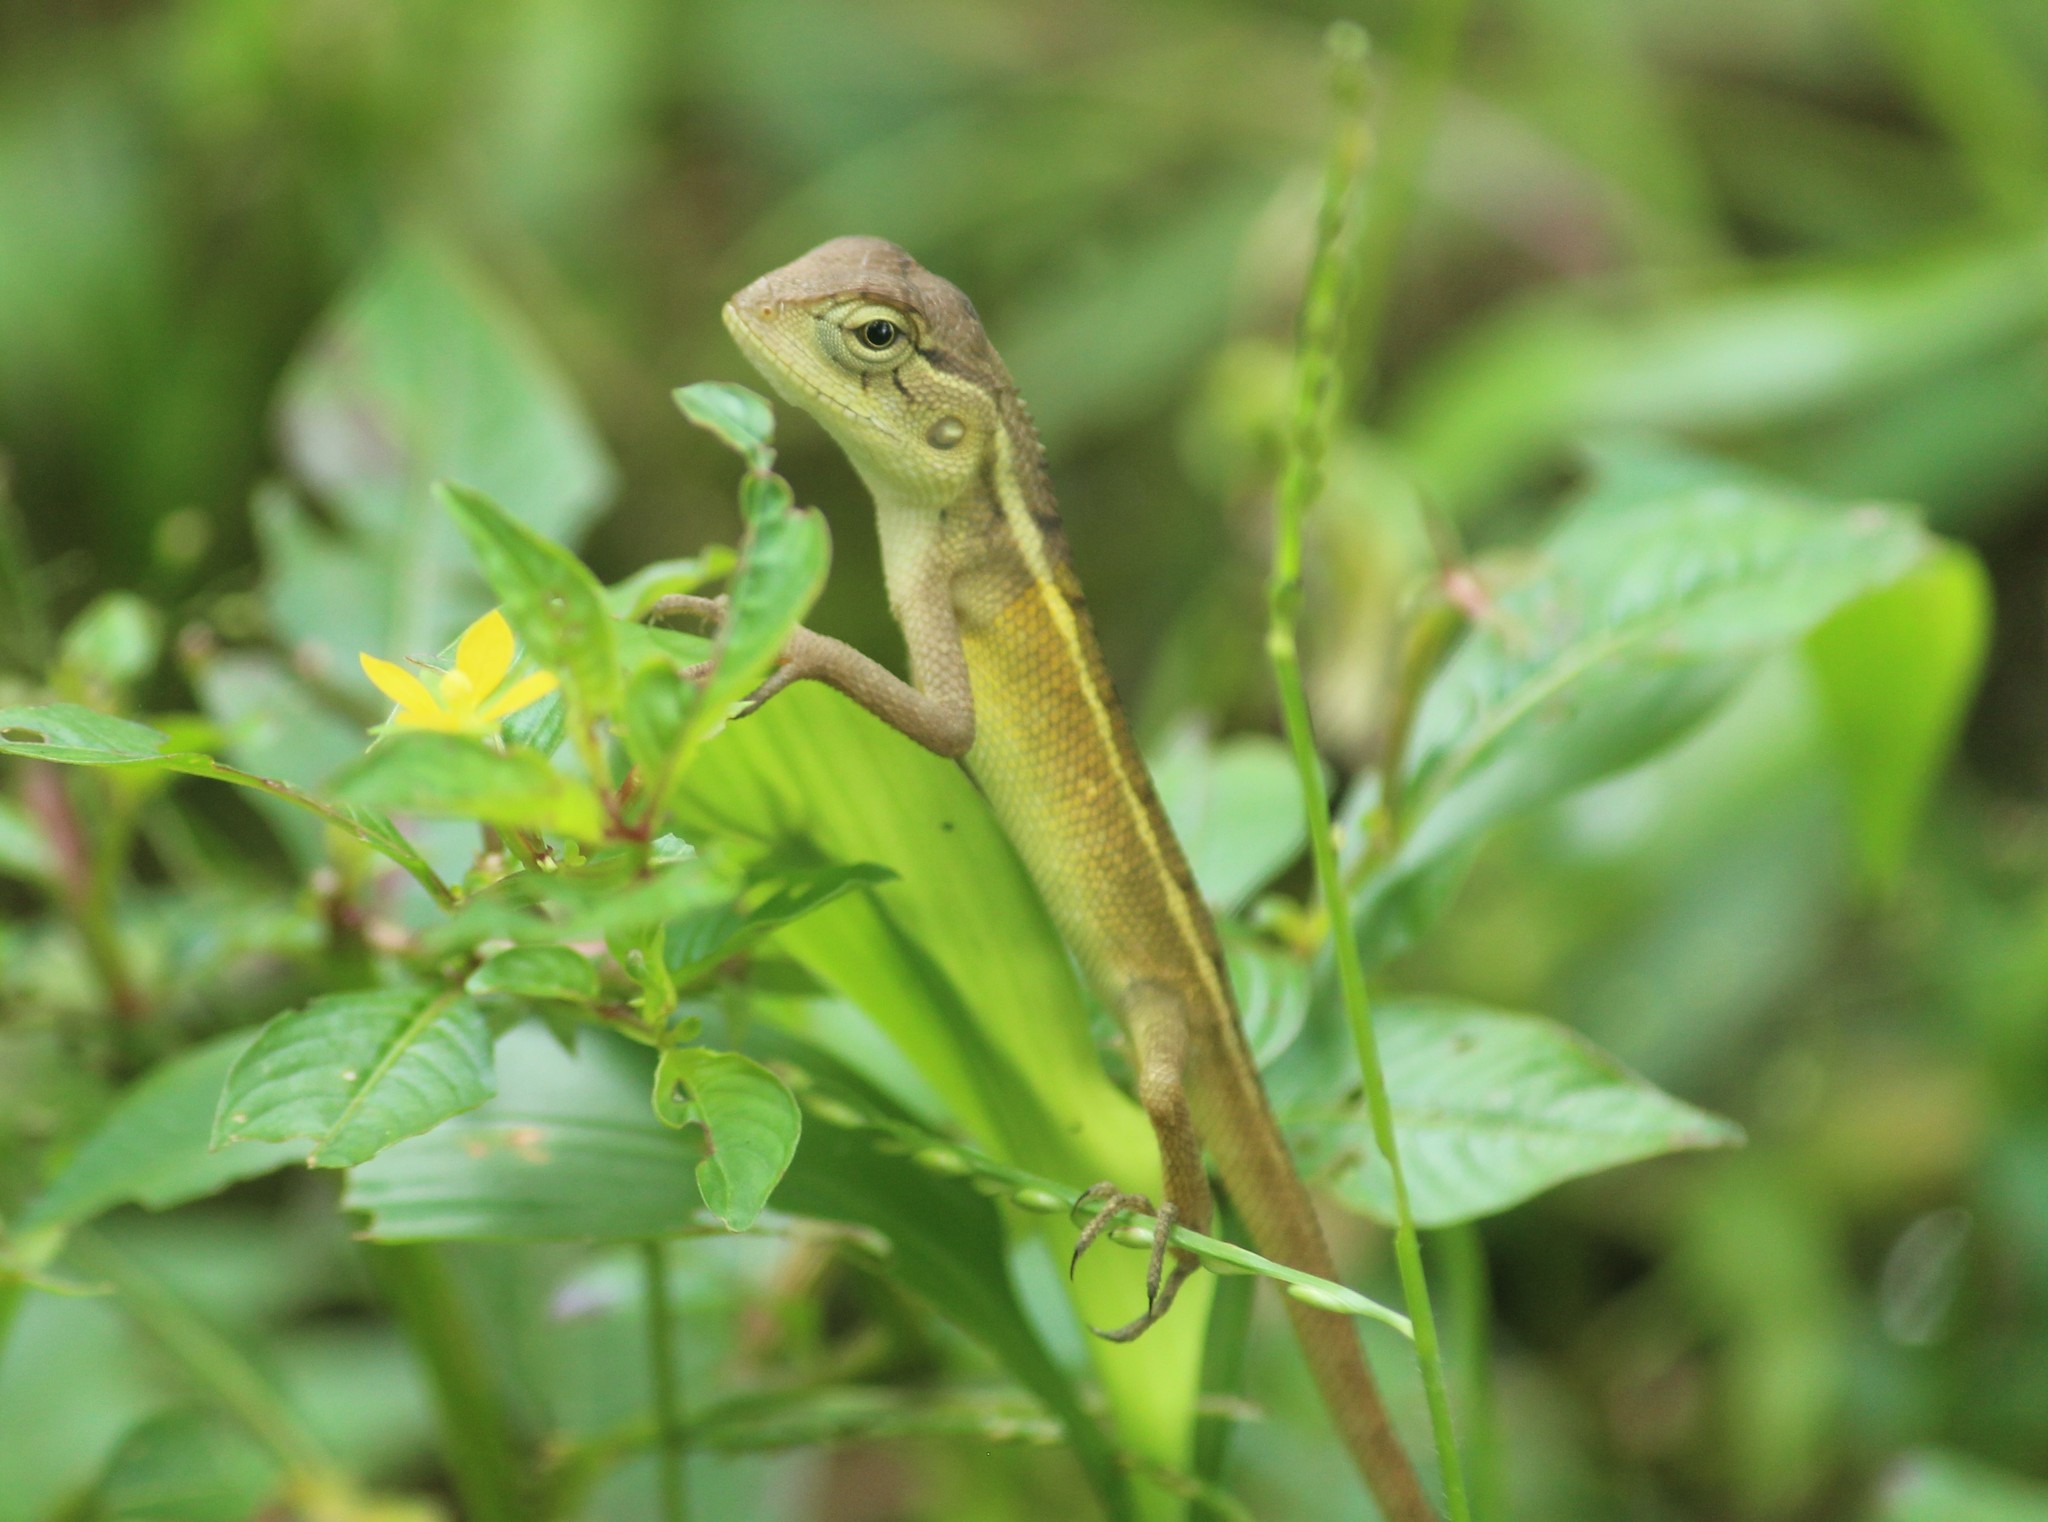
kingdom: Animalia
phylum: Chordata
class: Squamata
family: Agamidae
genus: Calotes
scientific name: Calotes versicolor
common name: Oriental garden lizard
